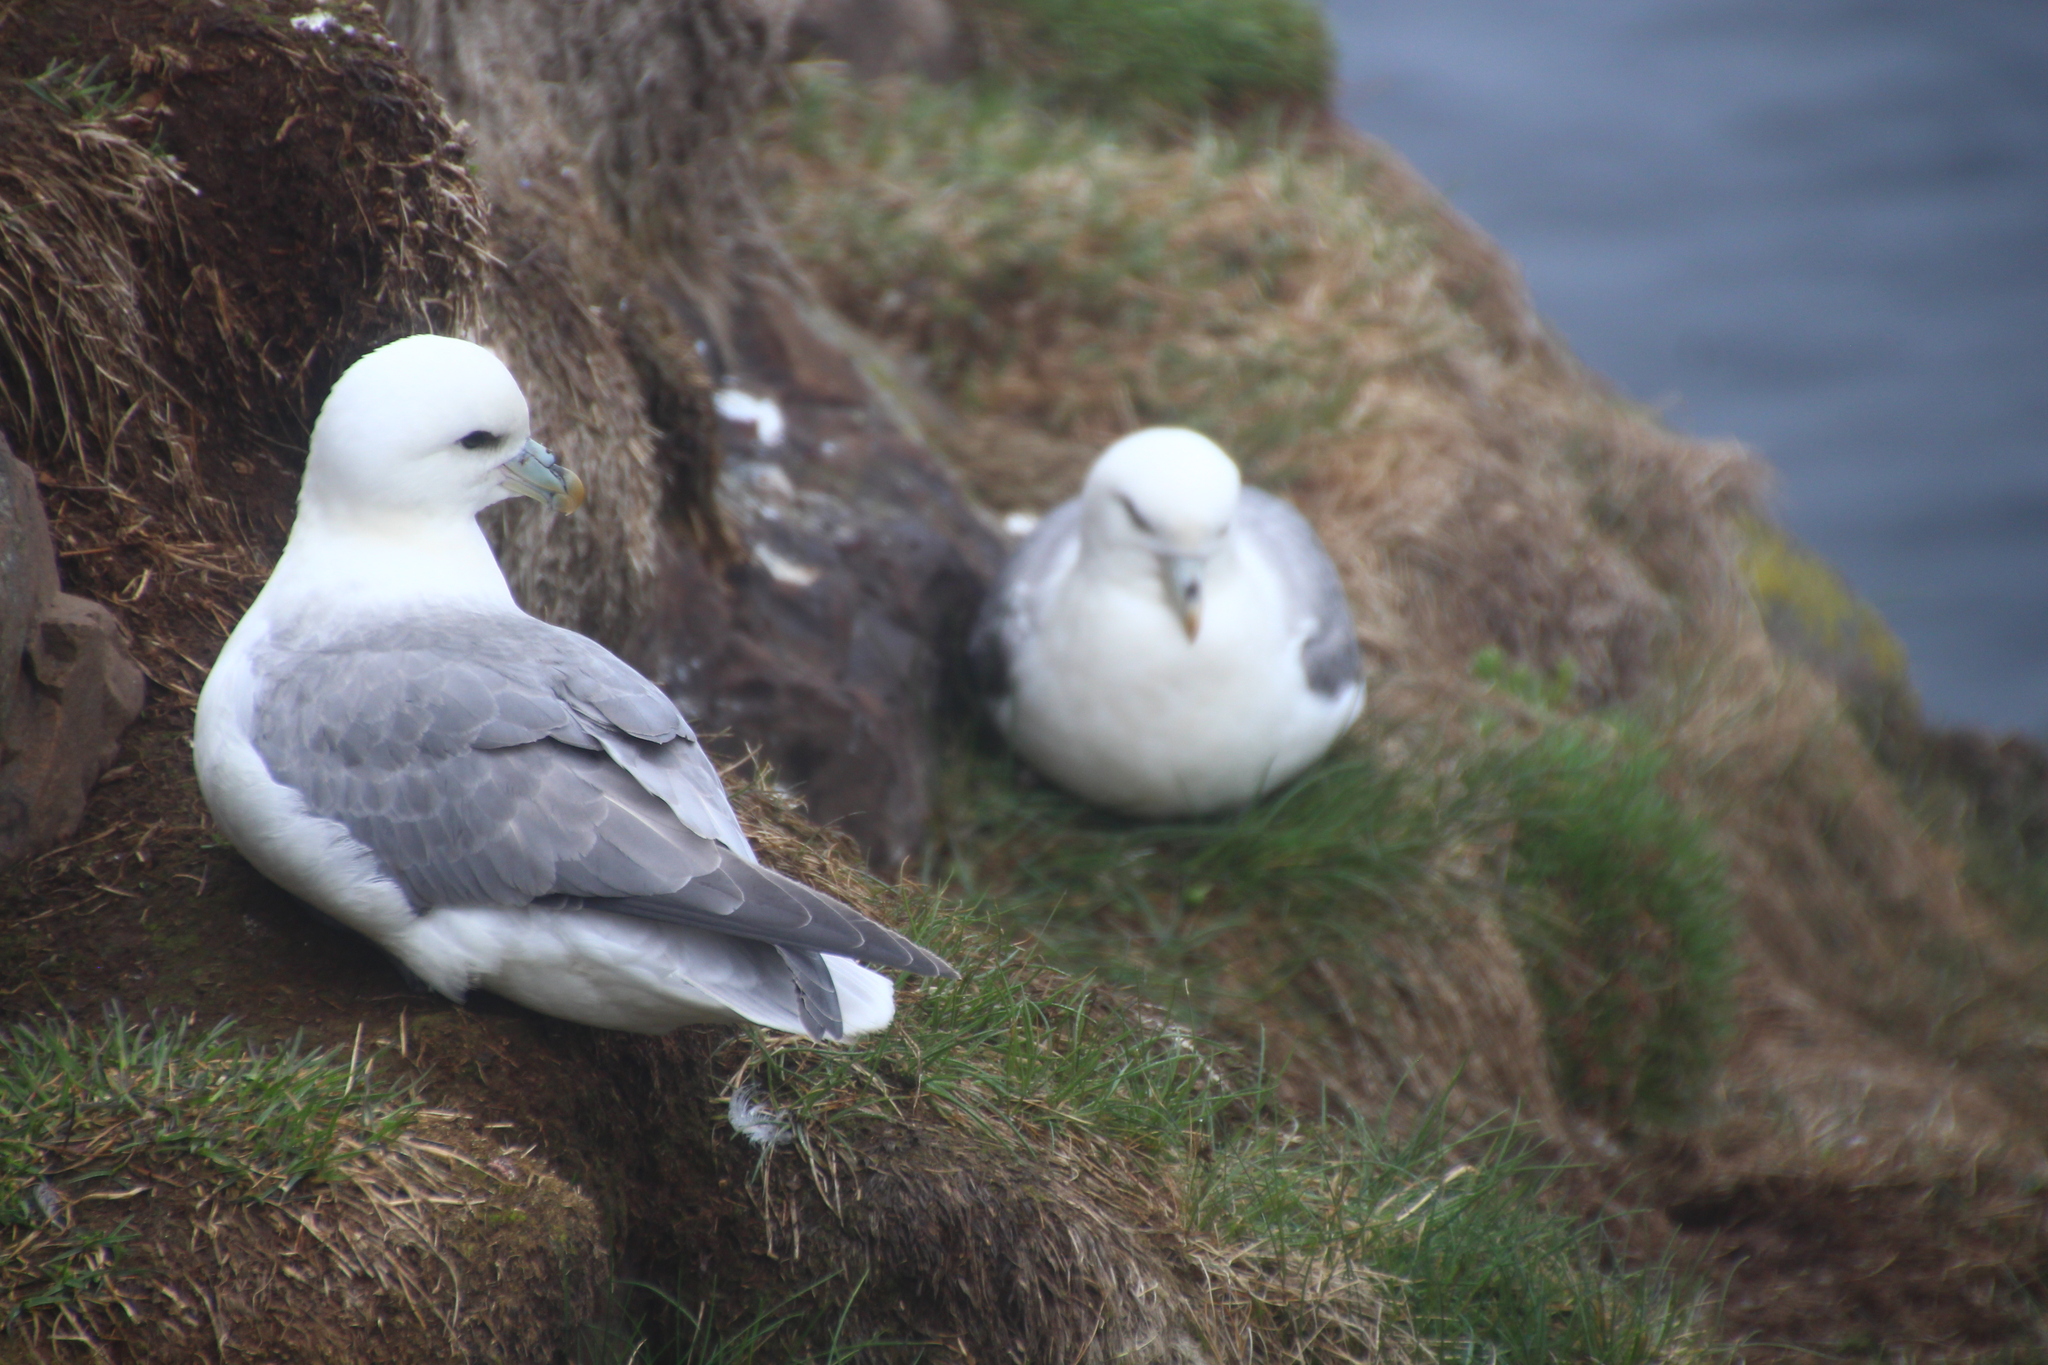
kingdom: Animalia
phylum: Chordata
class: Aves
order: Procellariiformes
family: Procellariidae
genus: Fulmarus
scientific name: Fulmarus glacialis
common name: Northern fulmar
